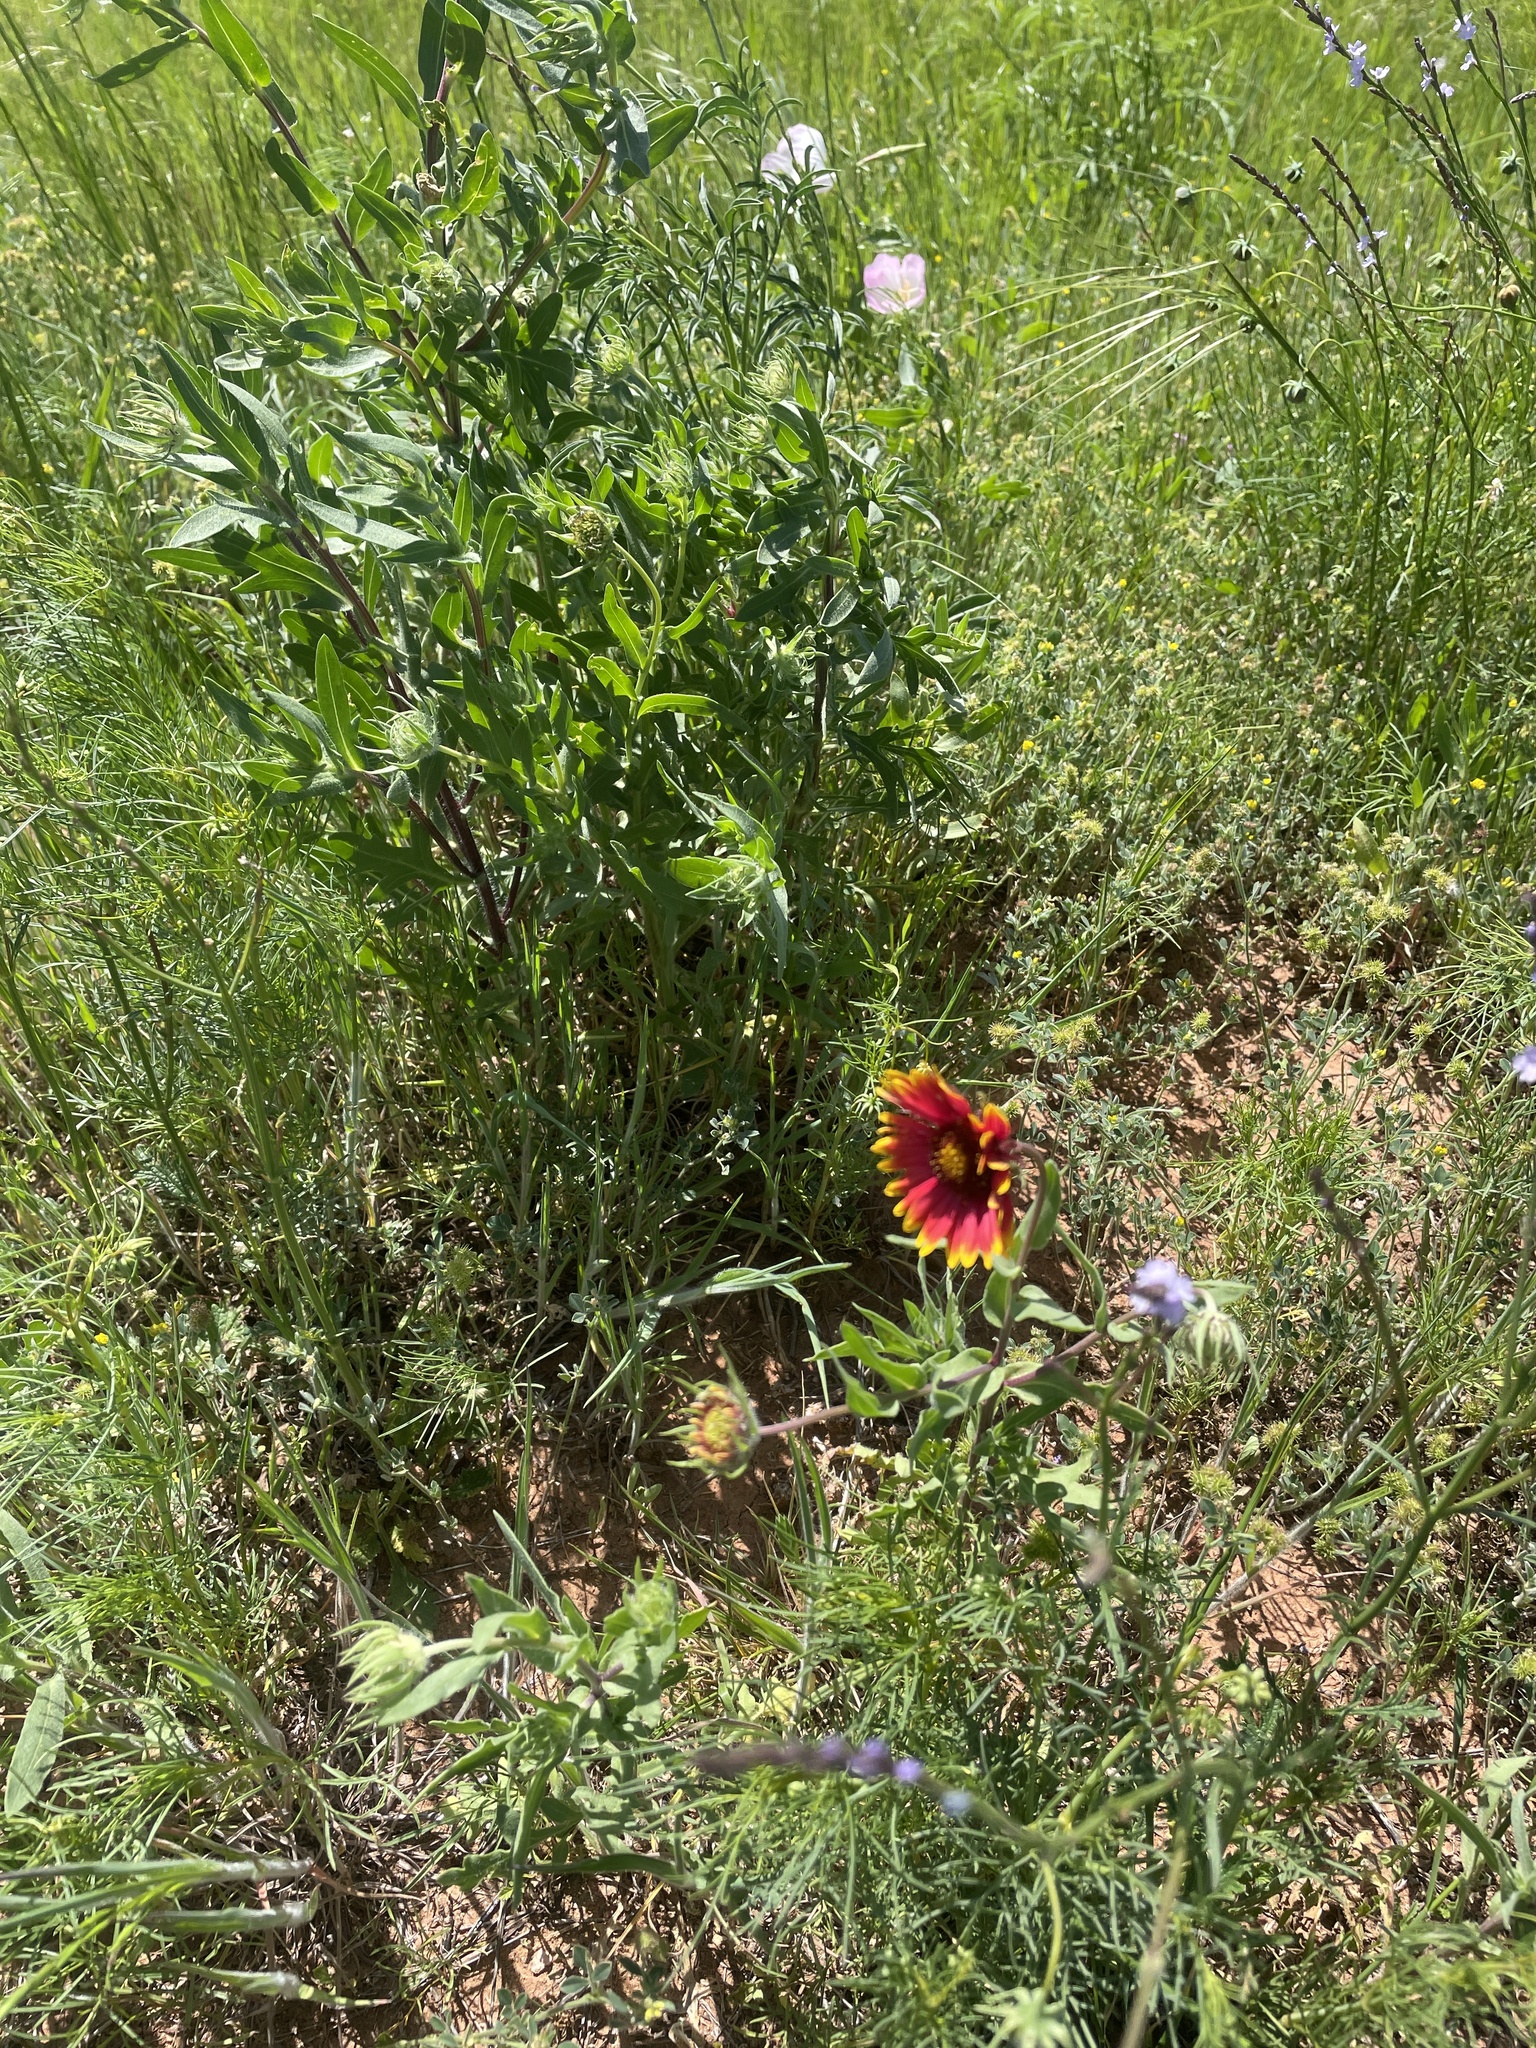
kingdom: Plantae
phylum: Tracheophyta
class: Magnoliopsida
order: Asterales
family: Asteraceae
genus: Gaillardia
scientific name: Gaillardia pulchella
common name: Firewheel
